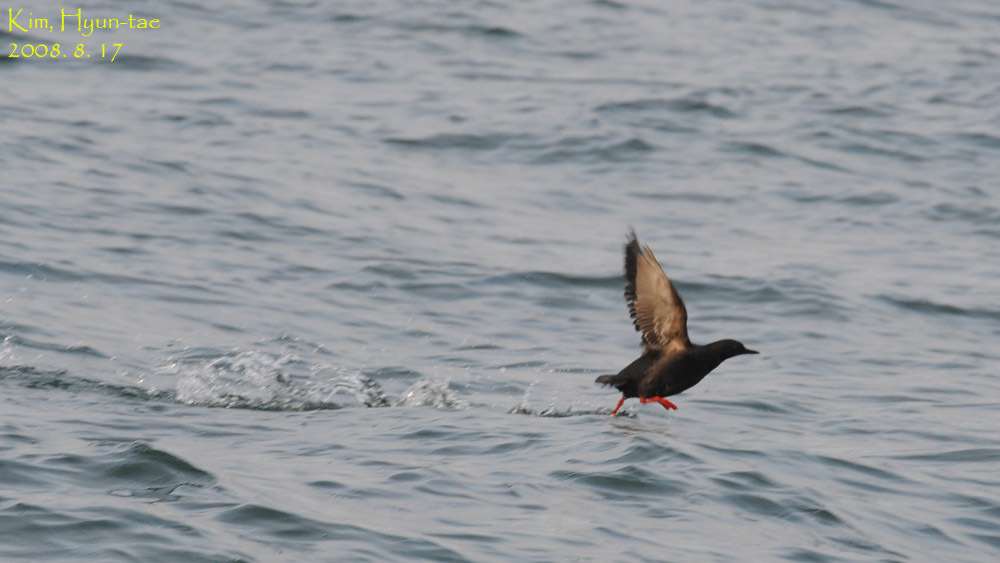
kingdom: Animalia
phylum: Chordata
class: Aves
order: Charadriiformes
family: Alcidae
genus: Cepphus
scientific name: Cepphus columba
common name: Pigeon guillemot
